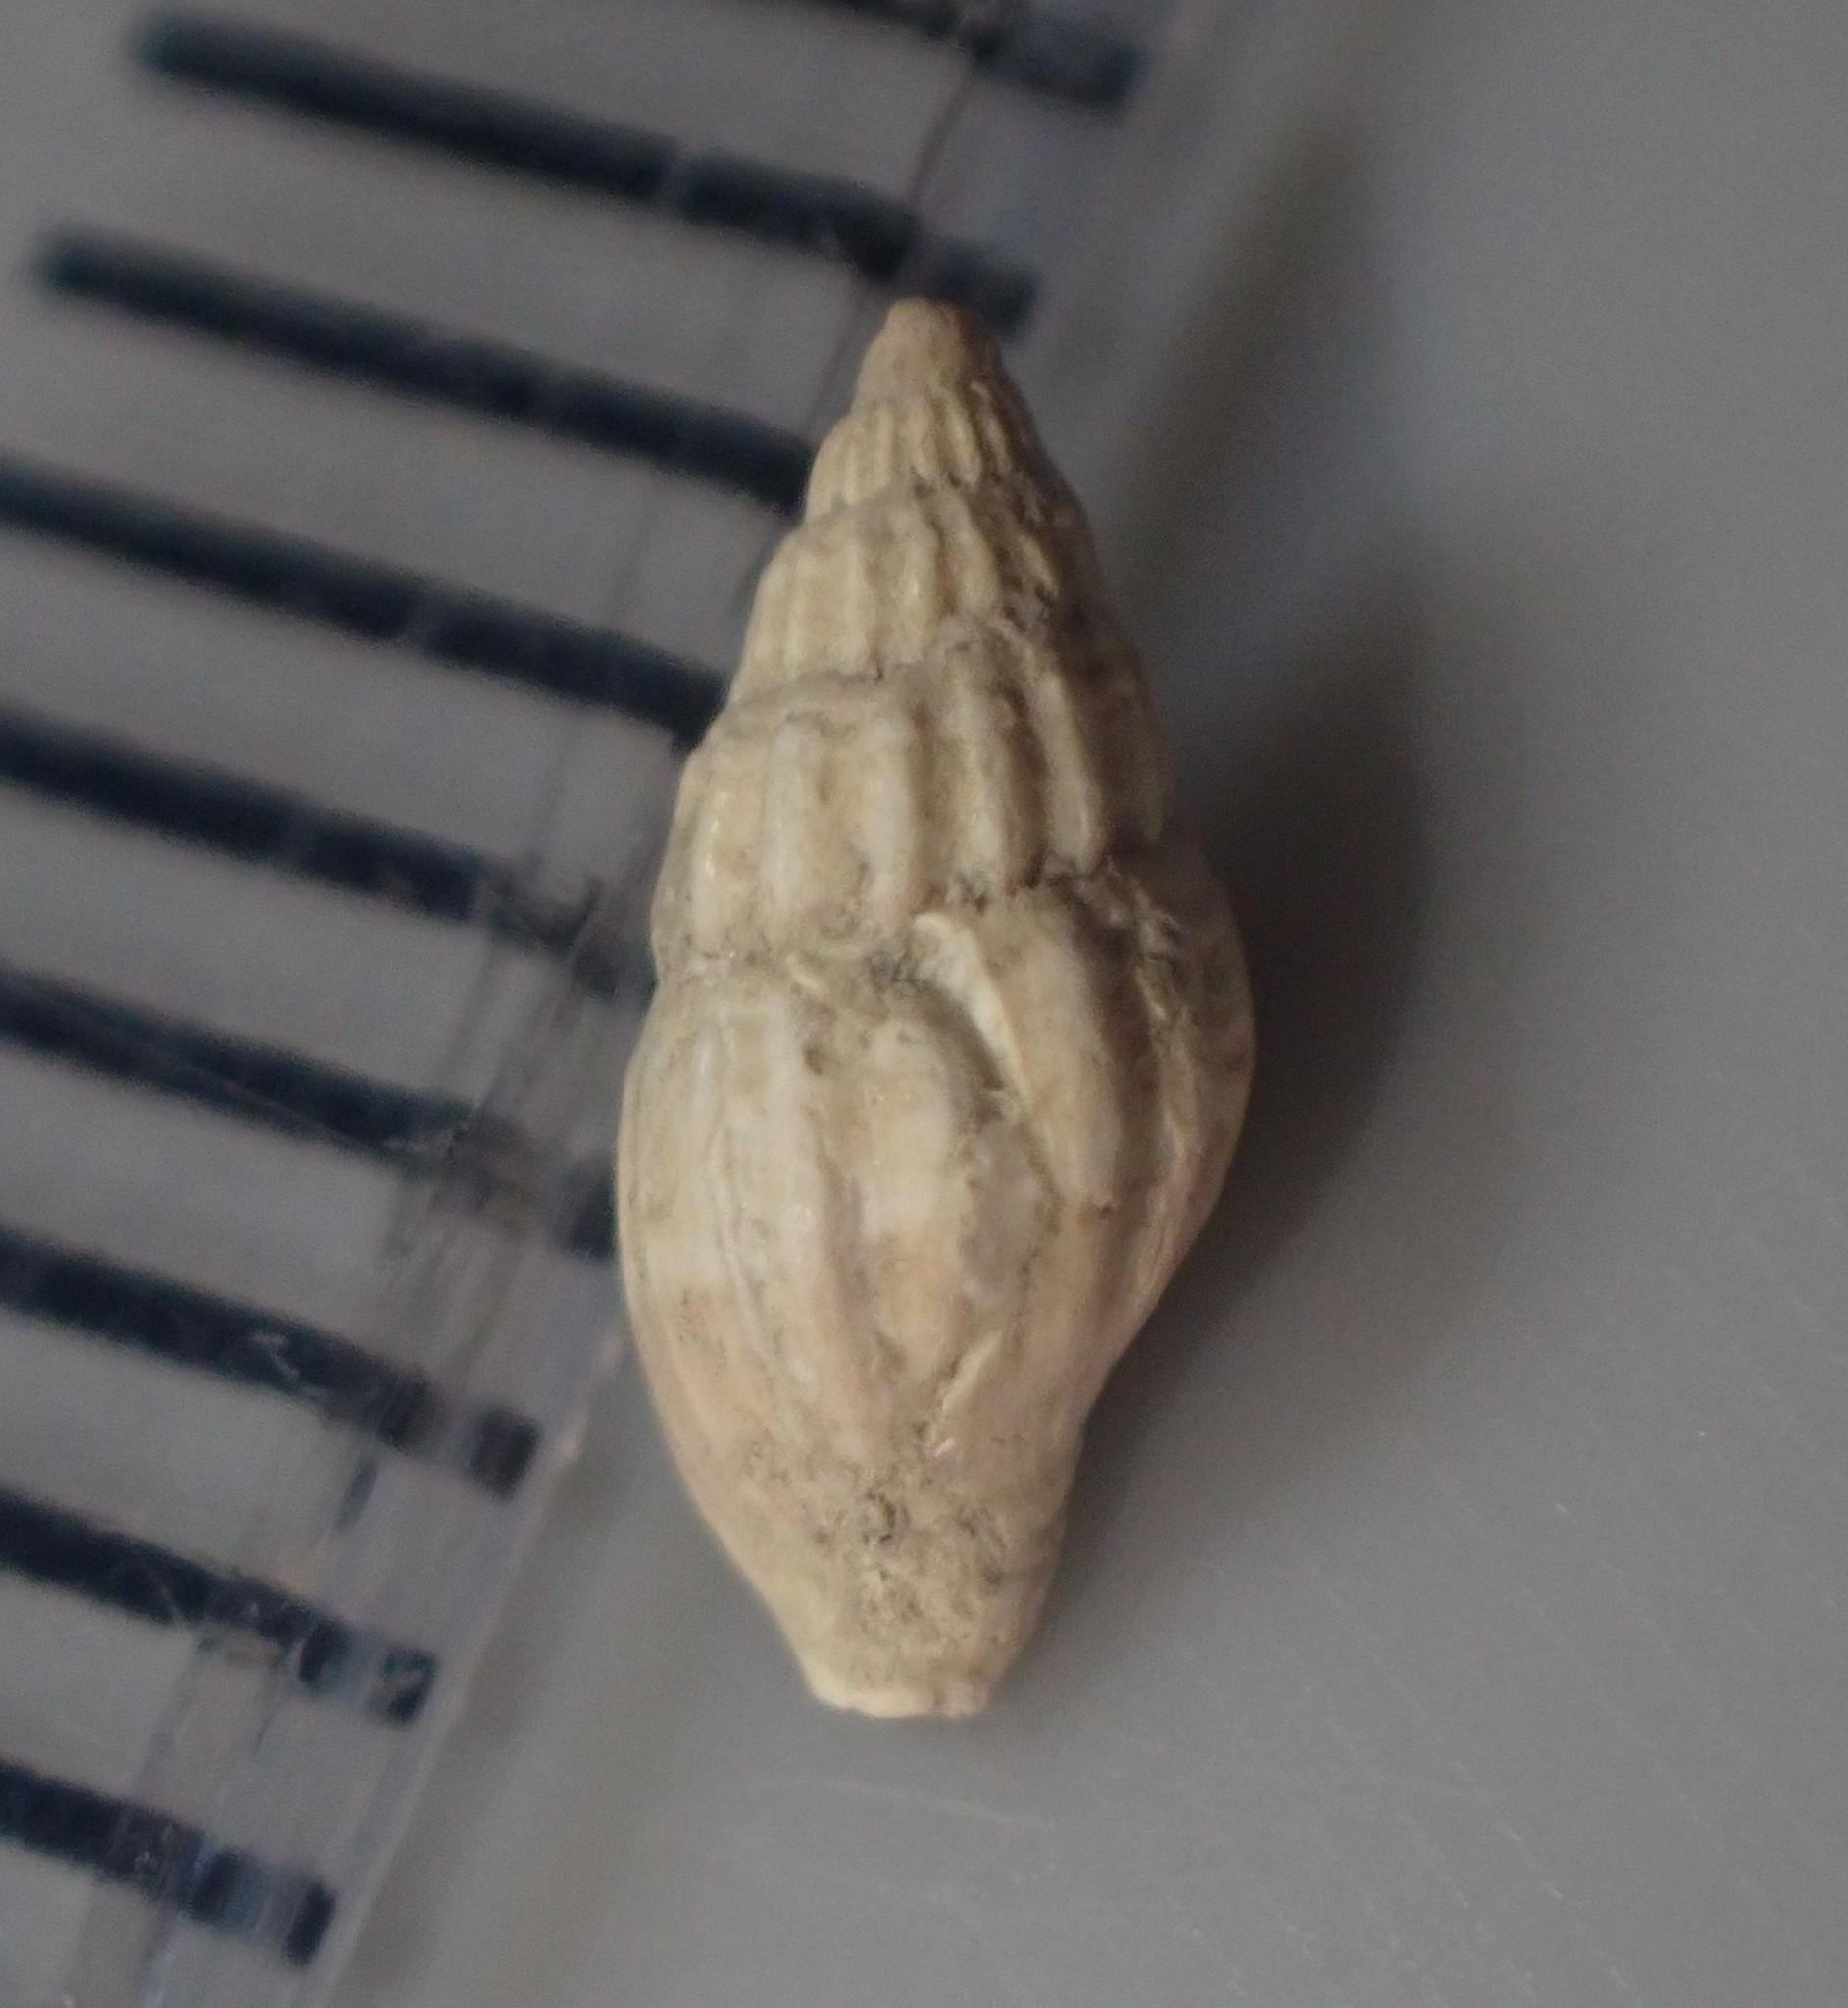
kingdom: Animalia
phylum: Mollusca
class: Gastropoda
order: Neogastropoda
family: Costellariidae
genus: Austromitra
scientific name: Austromitra rubiginosa
